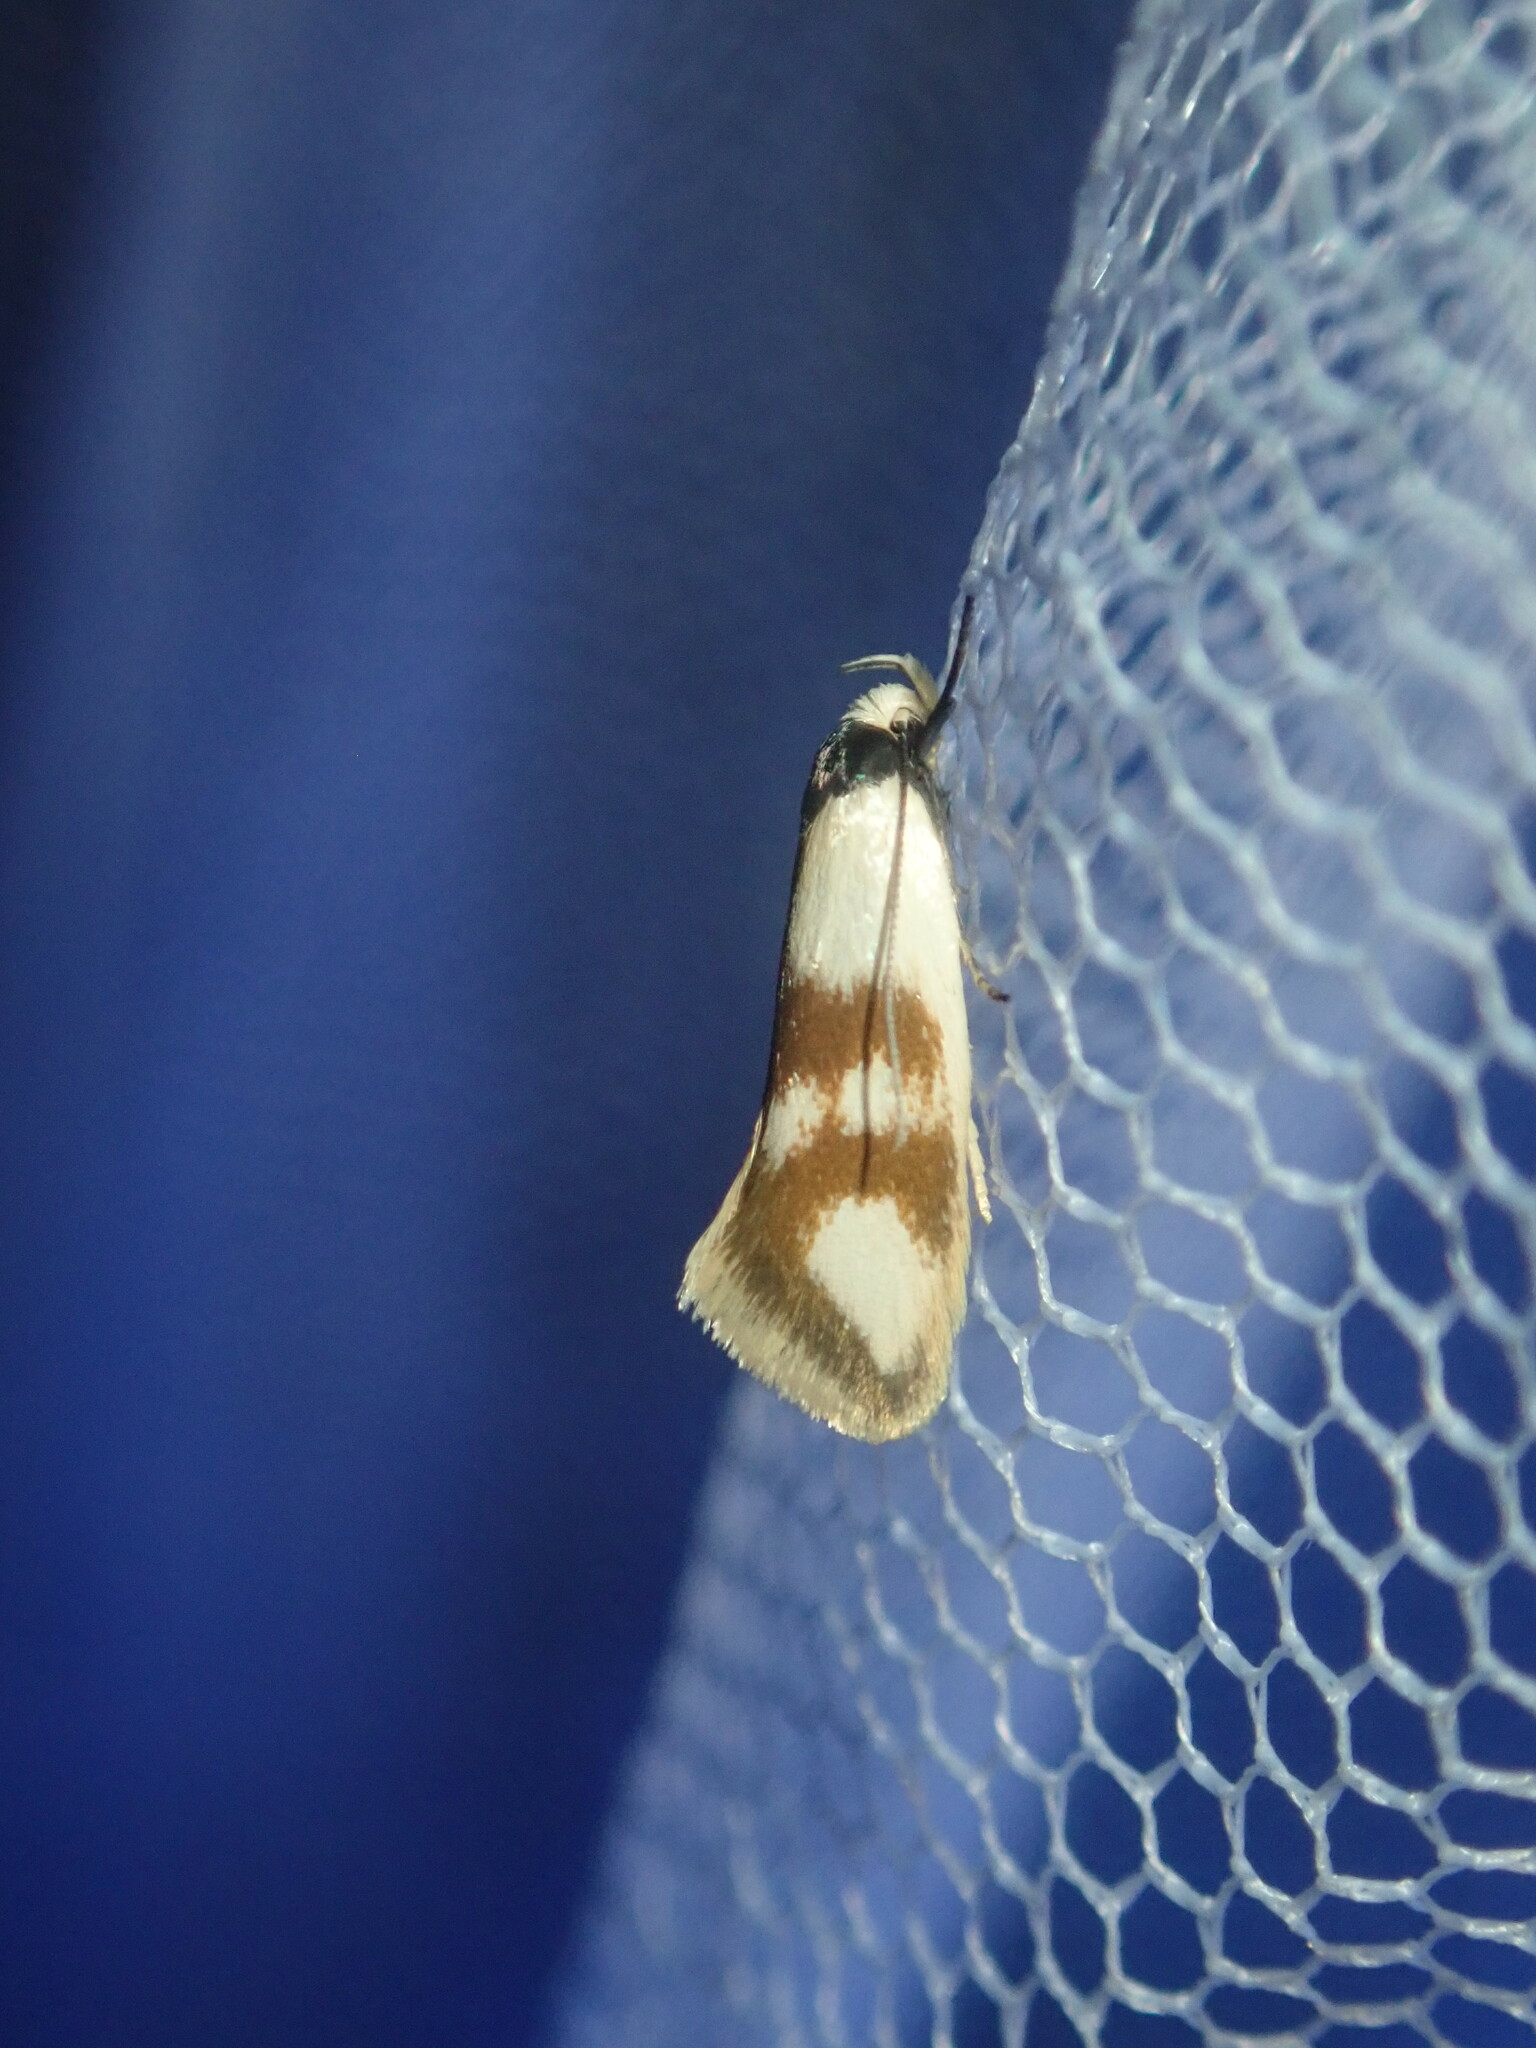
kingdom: Animalia
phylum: Arthropoda
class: Insecta
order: Lepidoptera
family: Oecophoridae
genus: Antipterna
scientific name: Antipterna trilicella
